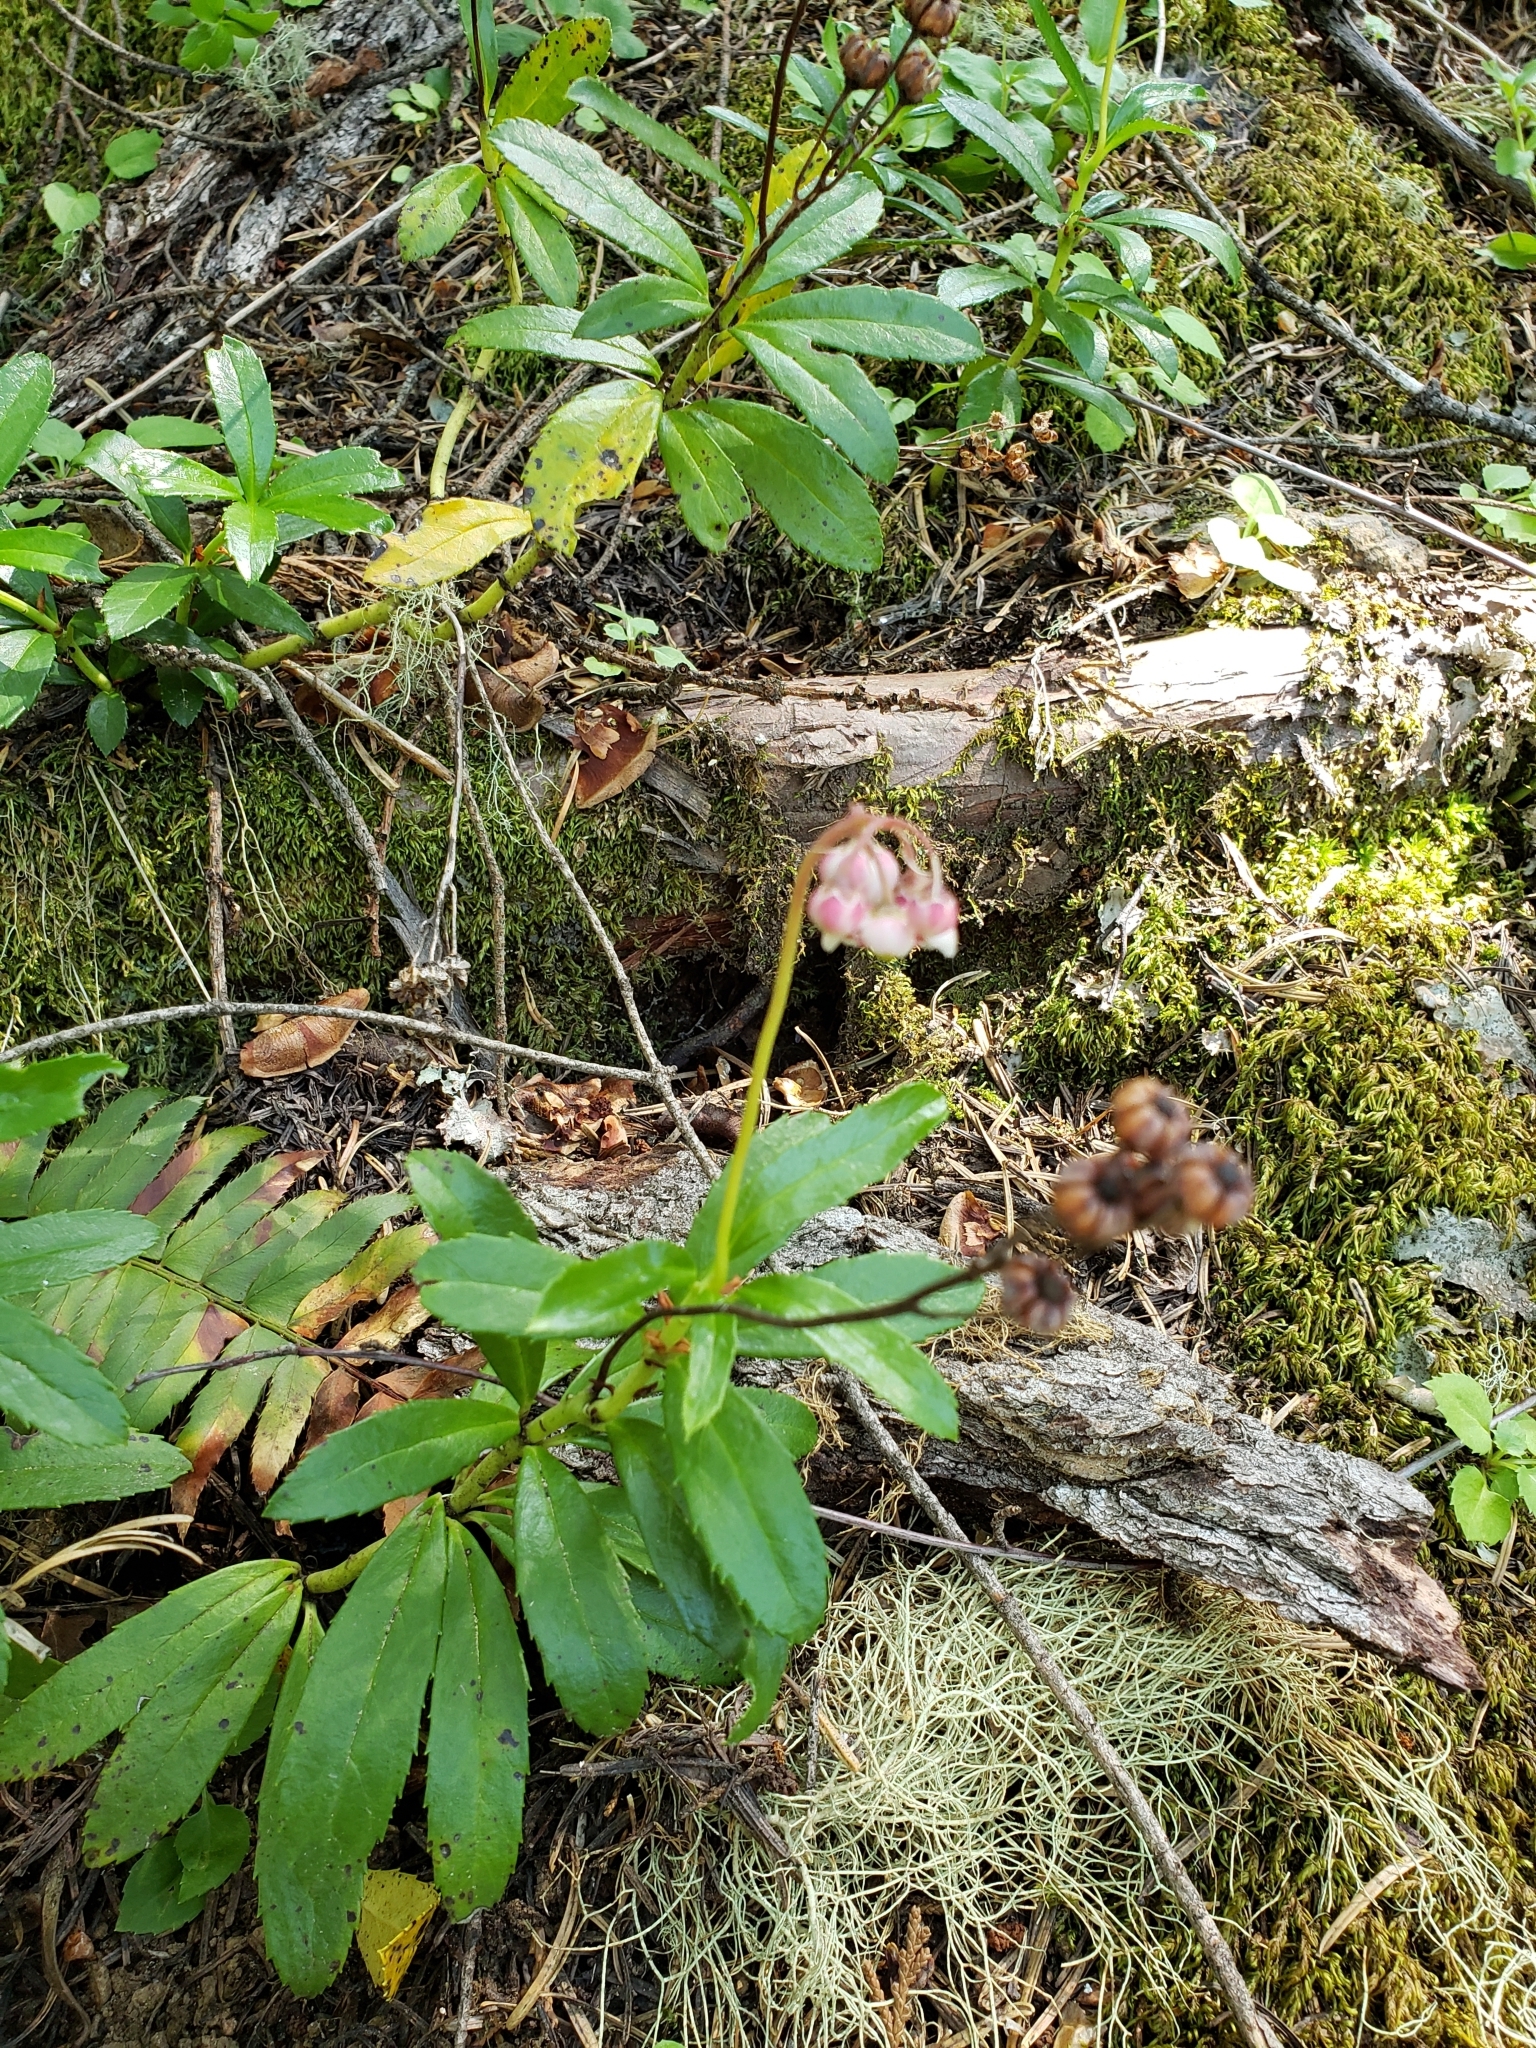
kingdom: Plantae
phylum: Tracheophyta
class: Magnoliopsida
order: Ericales
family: Ericaceae
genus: Chimaphila
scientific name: Chimaphila umbellata
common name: Pipsissewa
